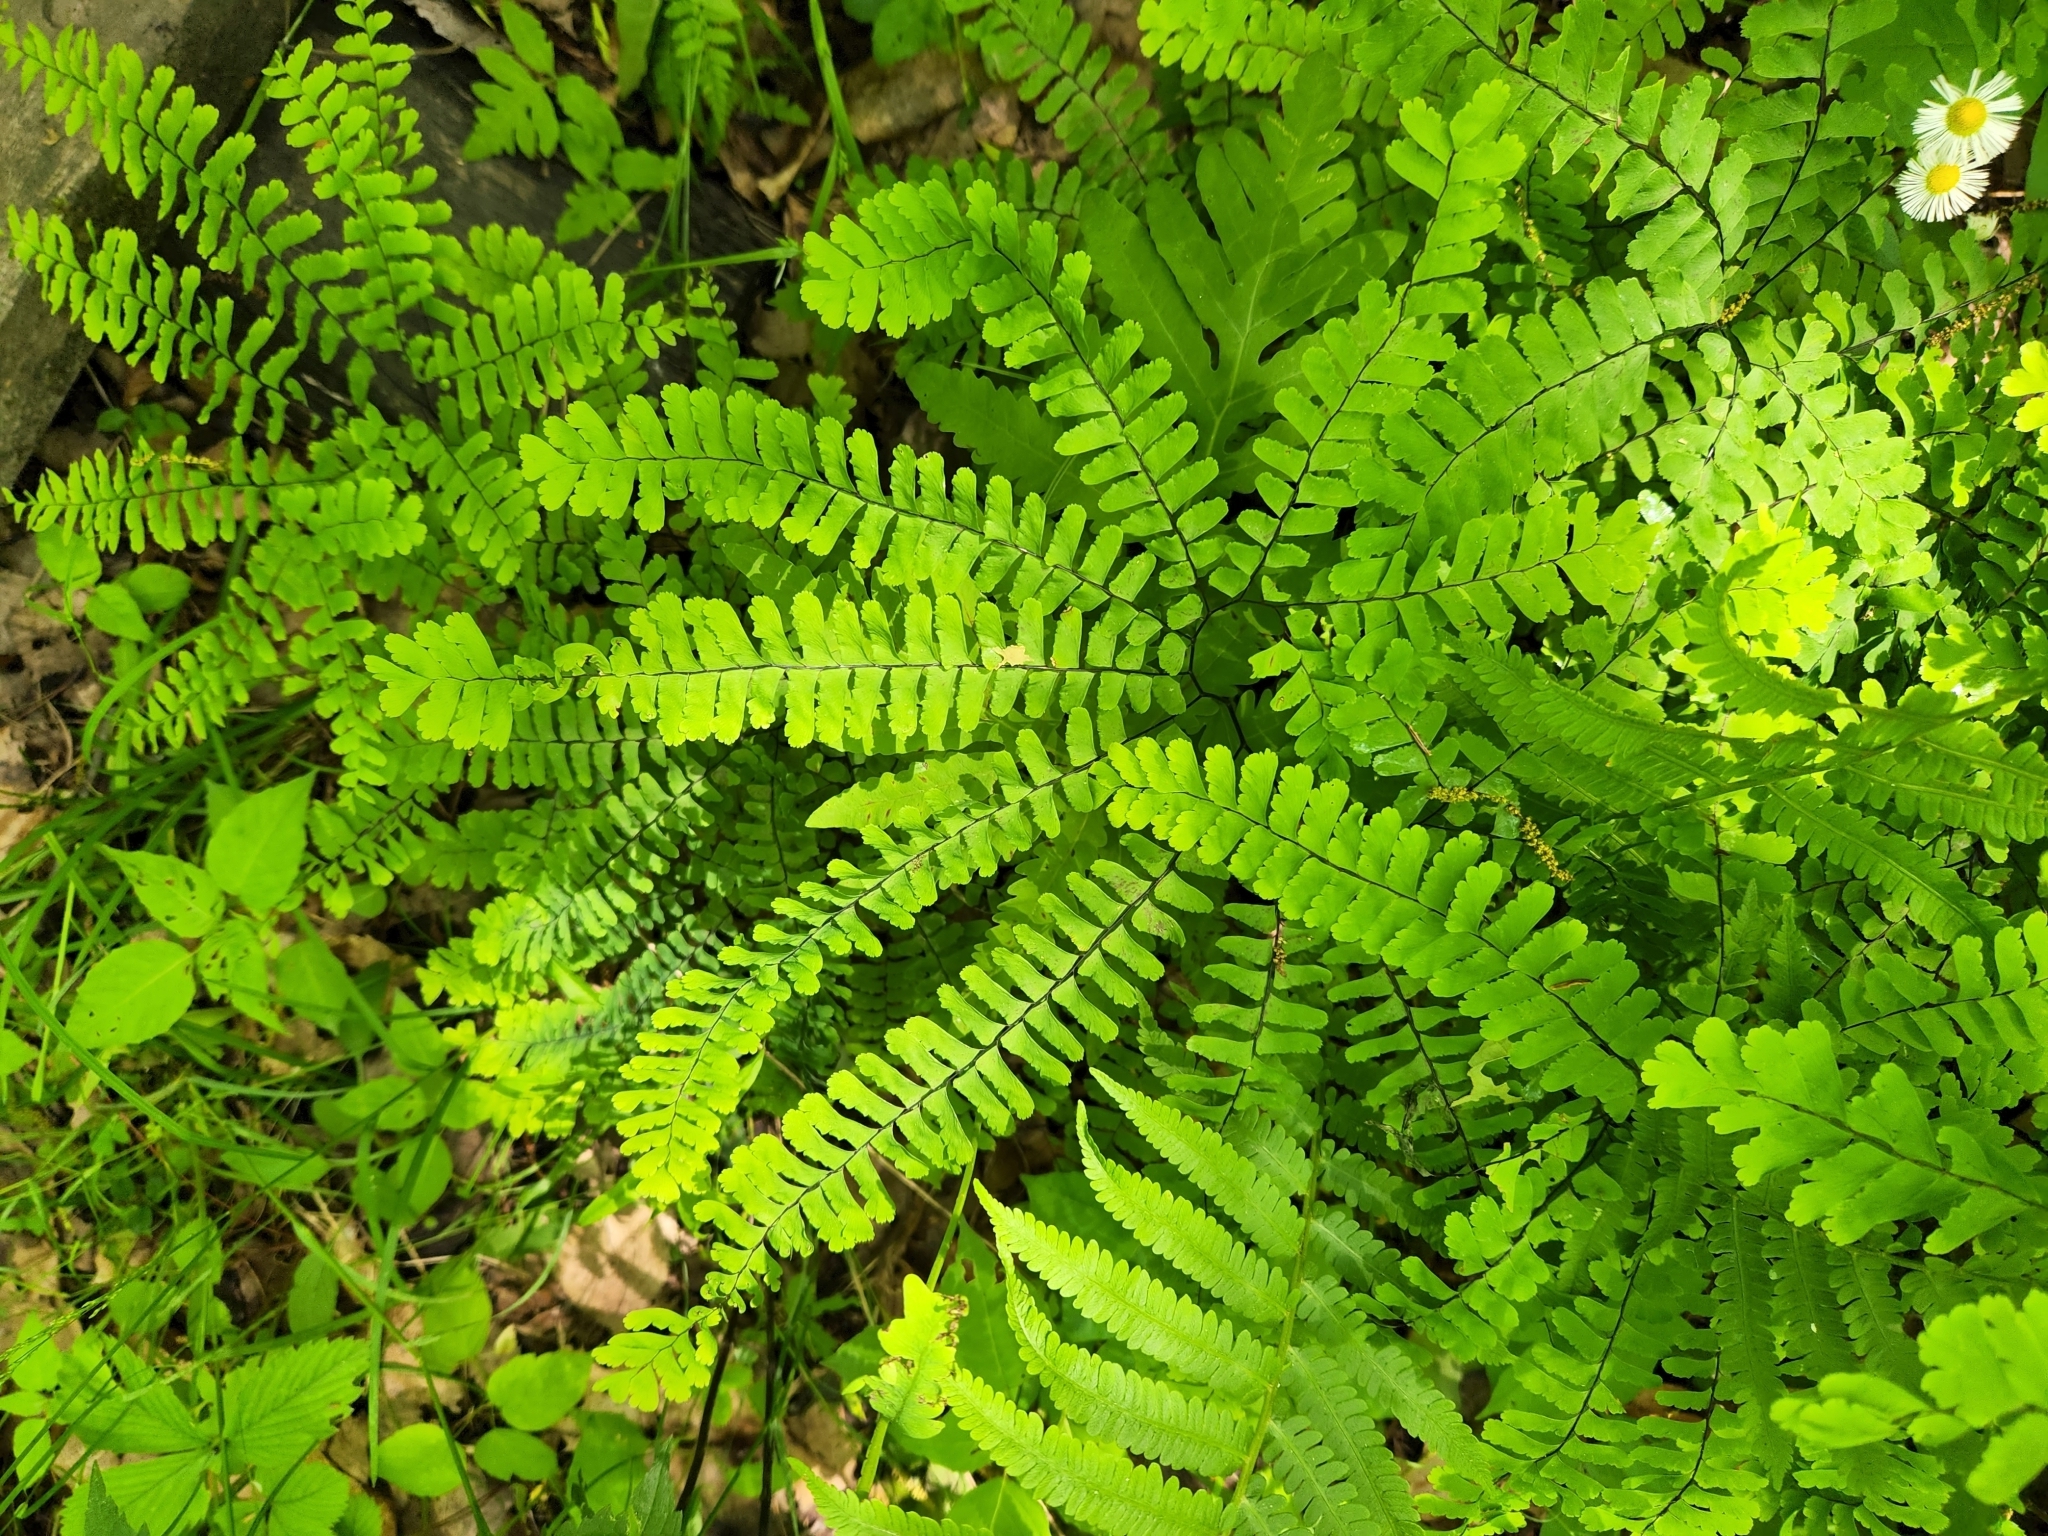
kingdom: Plantae
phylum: Tracheophyta
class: Polypodiopsida
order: Polypodiales
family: Pteridaceae
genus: Adiantum
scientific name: Adiantum pedatum
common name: Five-finger fern
